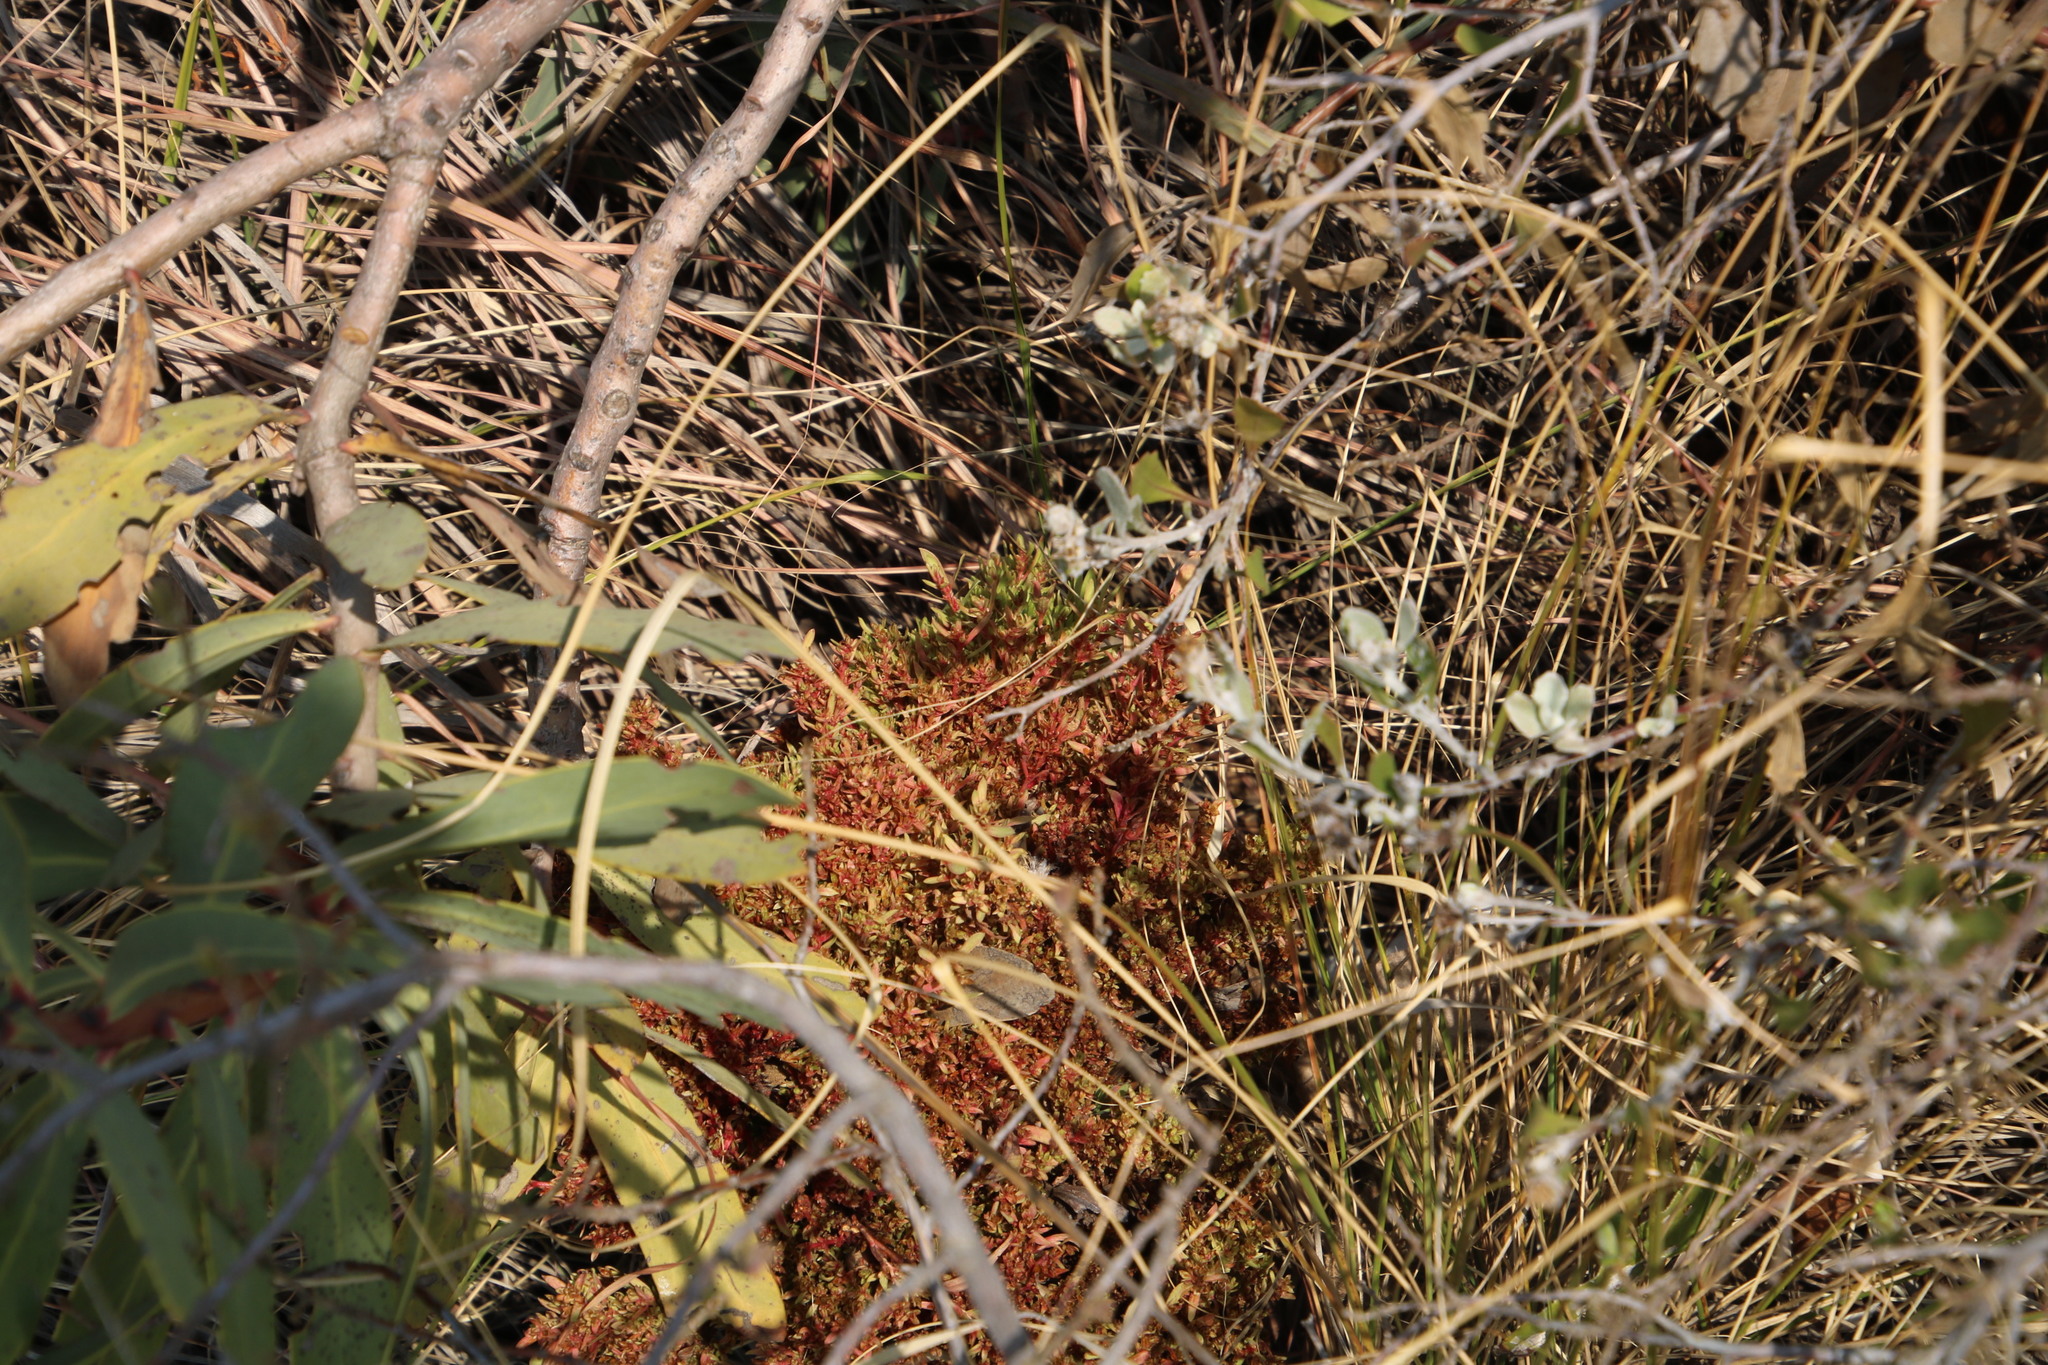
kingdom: Plantae
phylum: Tracheophyta
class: Magnoliopsida
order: Proteales
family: Proteaceae
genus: Protea
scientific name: Protea caffra
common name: Common sugarbush
